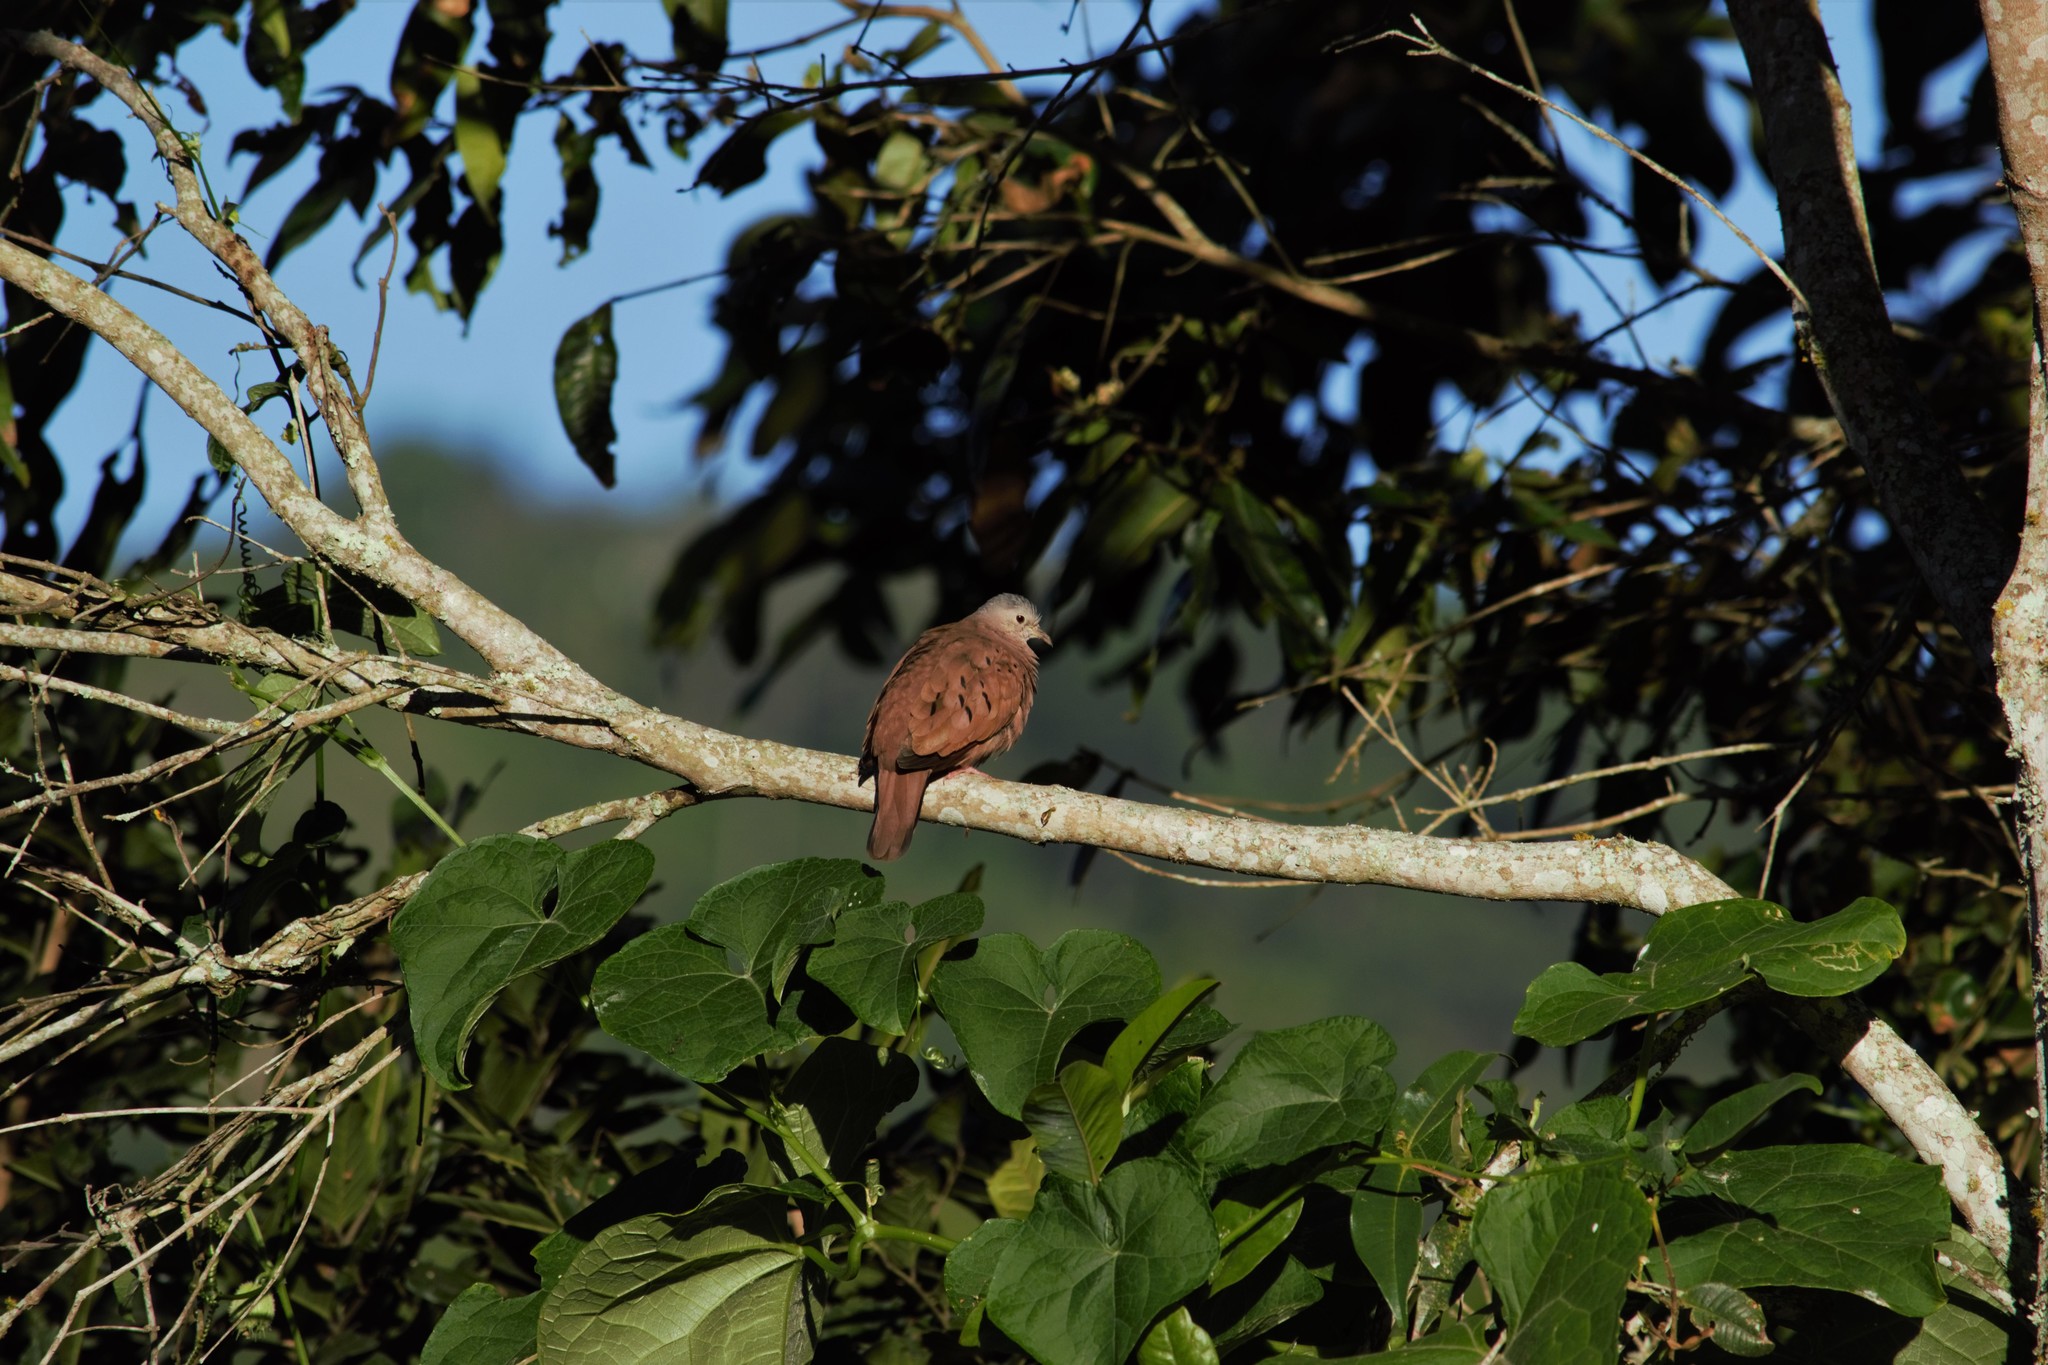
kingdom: Animalia
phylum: Chordata
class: Aves
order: Columbiformes
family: Columbidae
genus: Columbina
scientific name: Columbina talpacoti
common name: Ruddy ground dove
